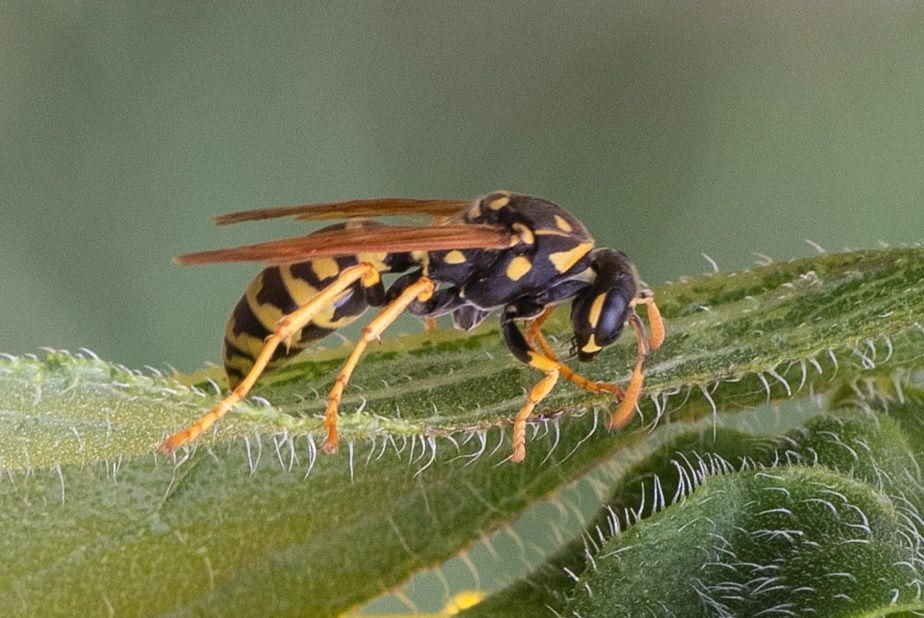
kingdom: Animalia
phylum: Arthropoda
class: Insecta
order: Hymenoptera
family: Eumenidae
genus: Polistes
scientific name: Polistes dominula
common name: Paper wasp
